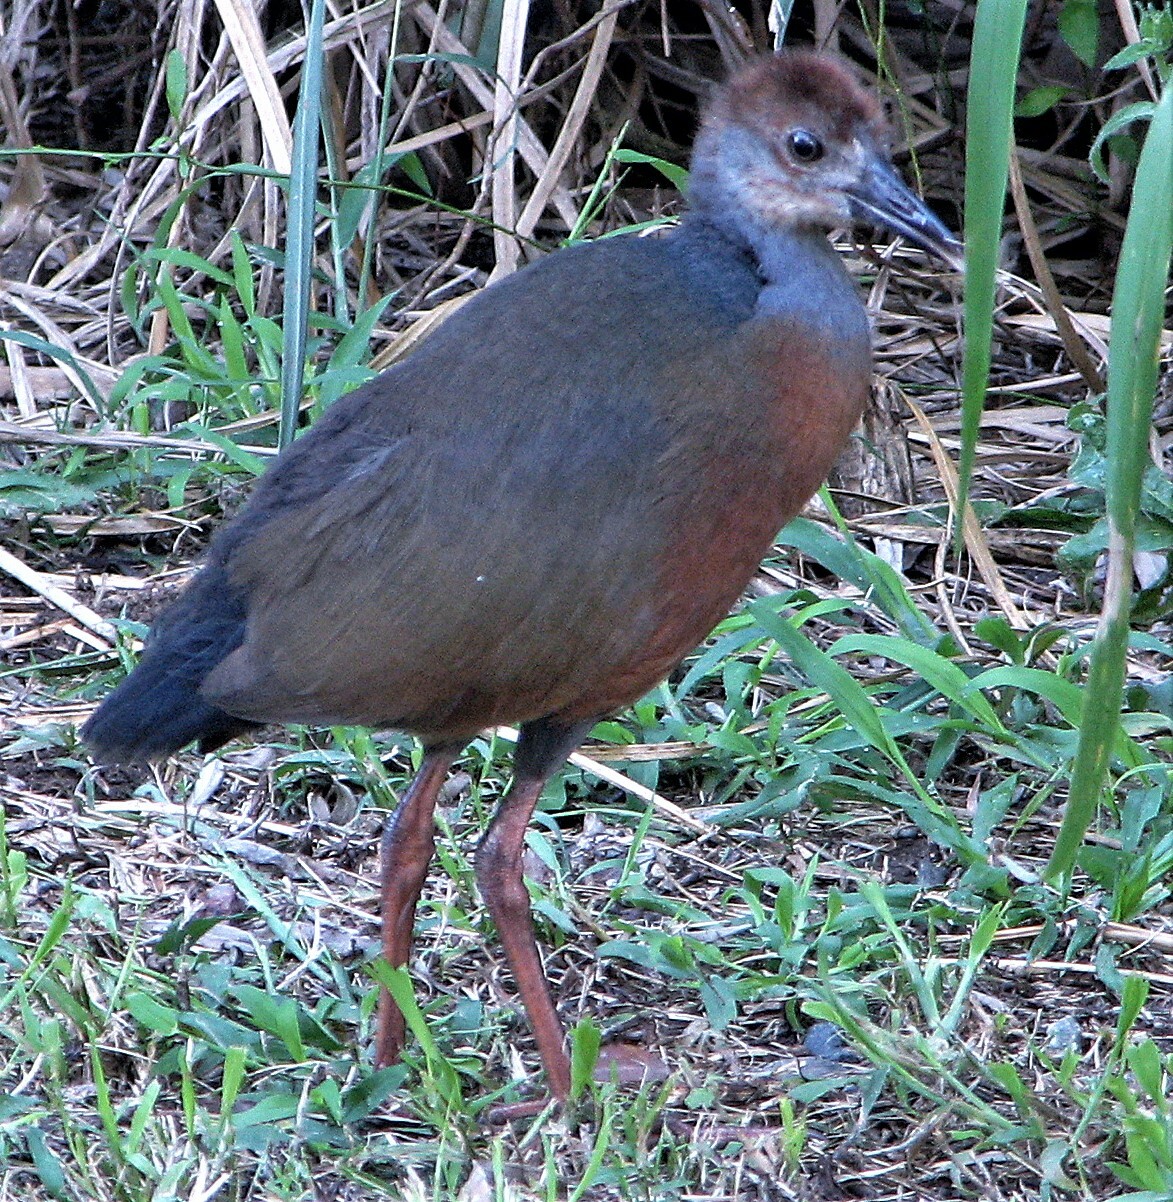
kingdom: Animalia
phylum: Chordata
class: Aves
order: Gruiformes
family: Rallidae
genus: Aramides
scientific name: Aramides cajanea
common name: Gray-necked wood-rail
